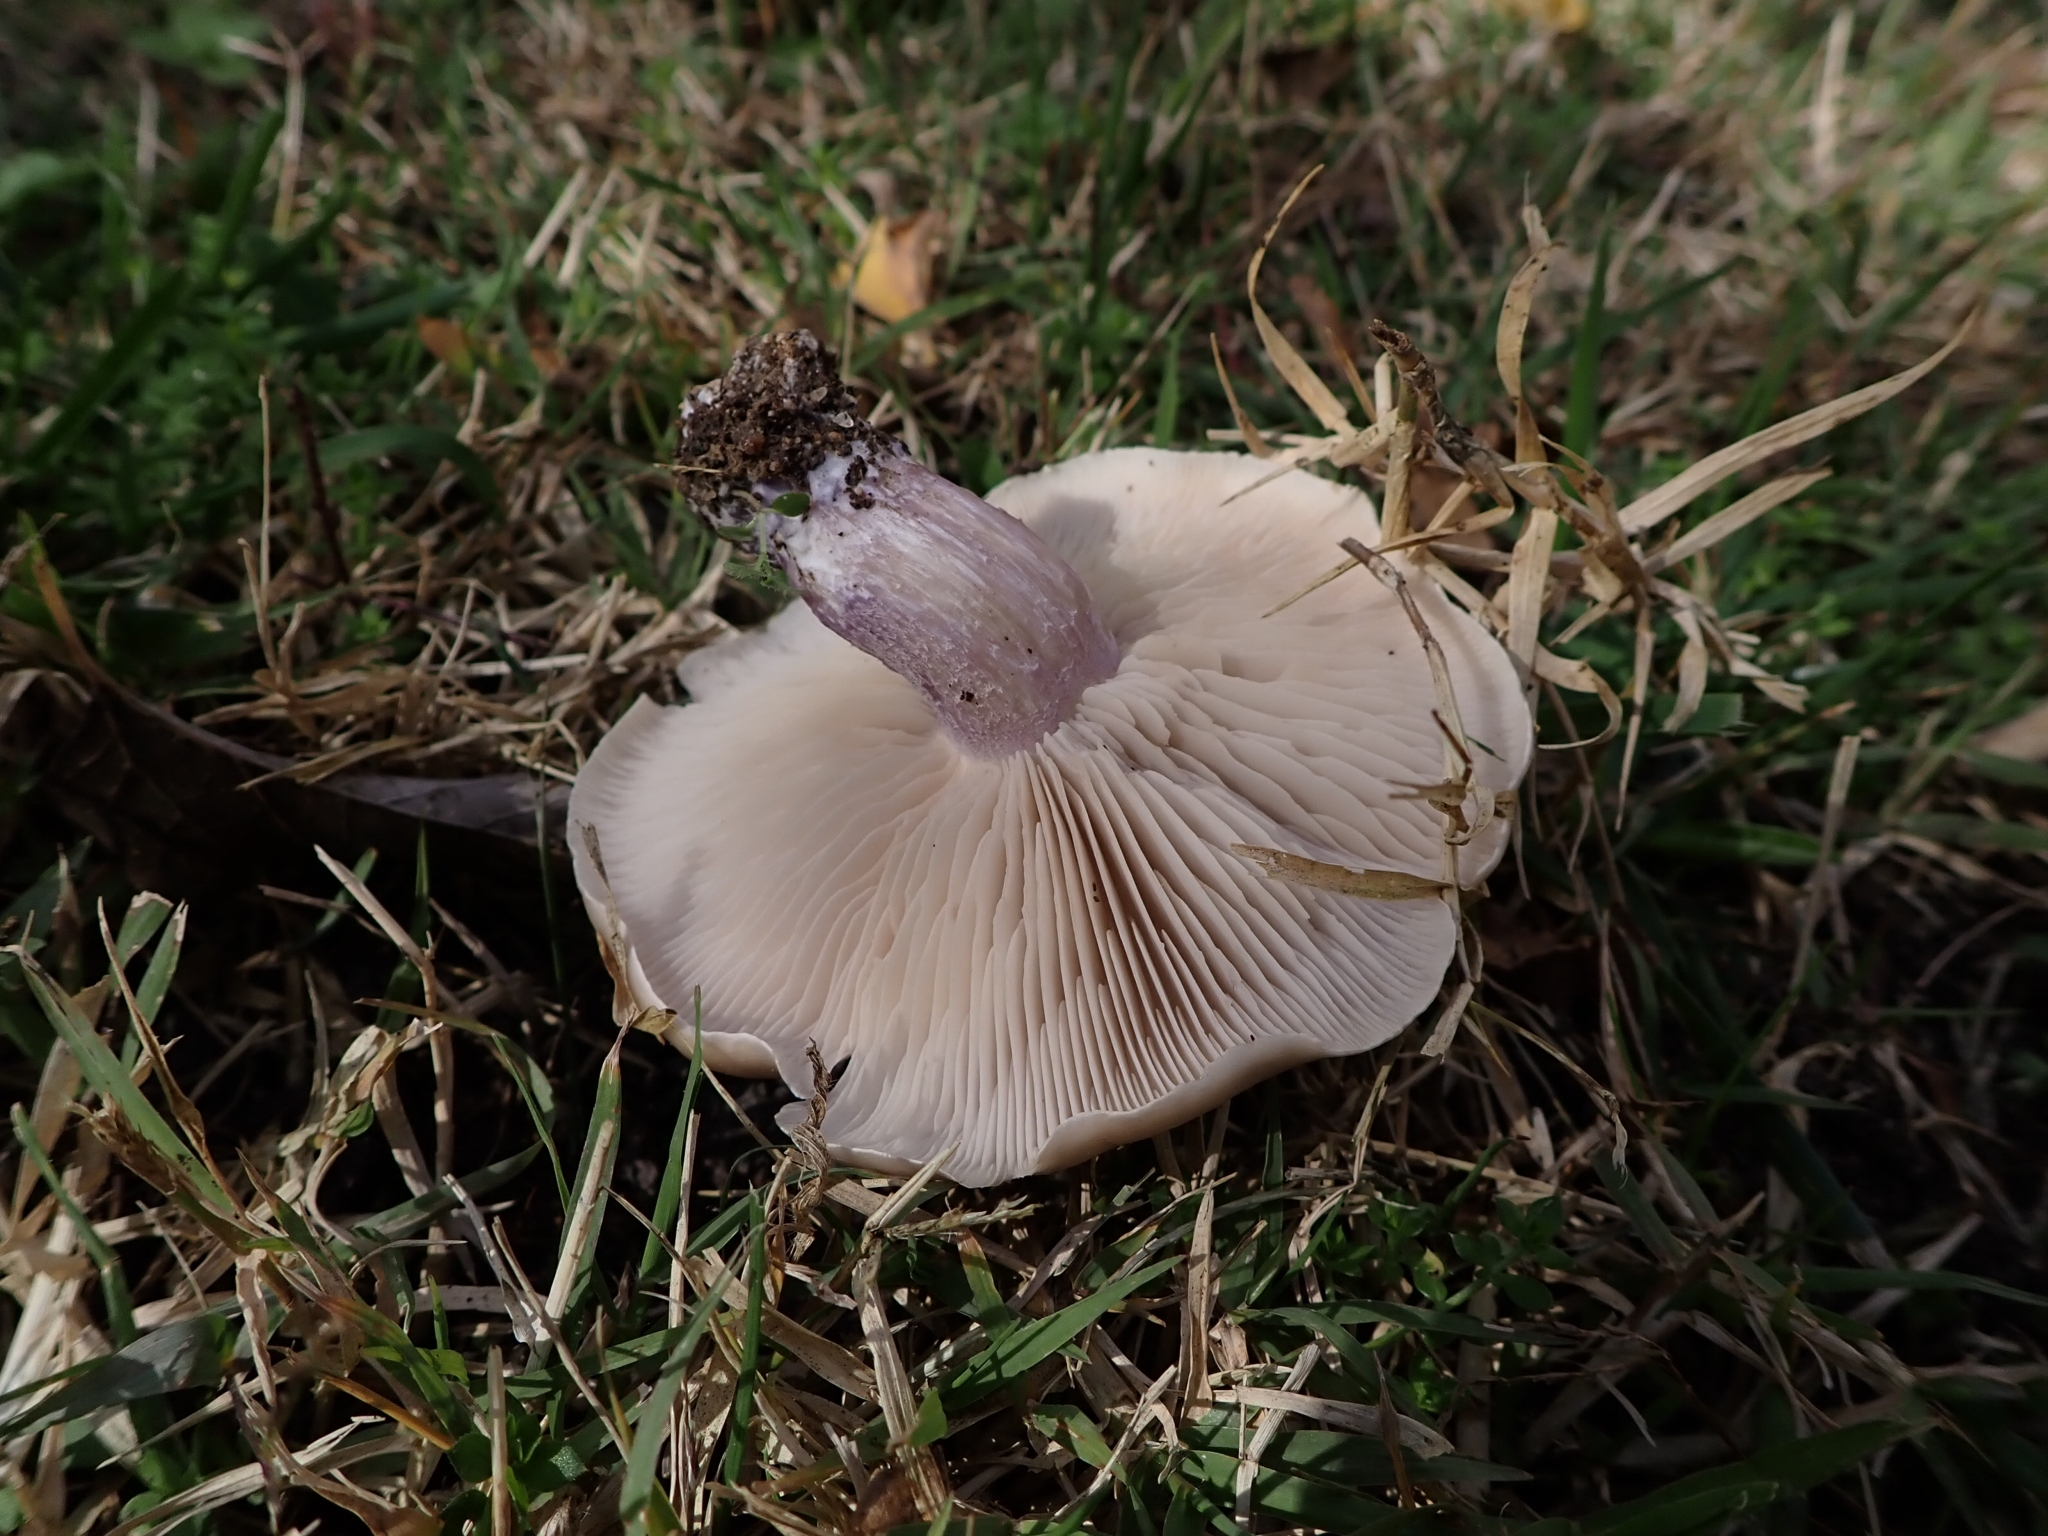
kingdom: Fungi
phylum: Basidiomycota
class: Agaricomycetes
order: Agaricales
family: Omphalotaceae
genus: Collybiopsis
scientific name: Collybiopsis peronata
